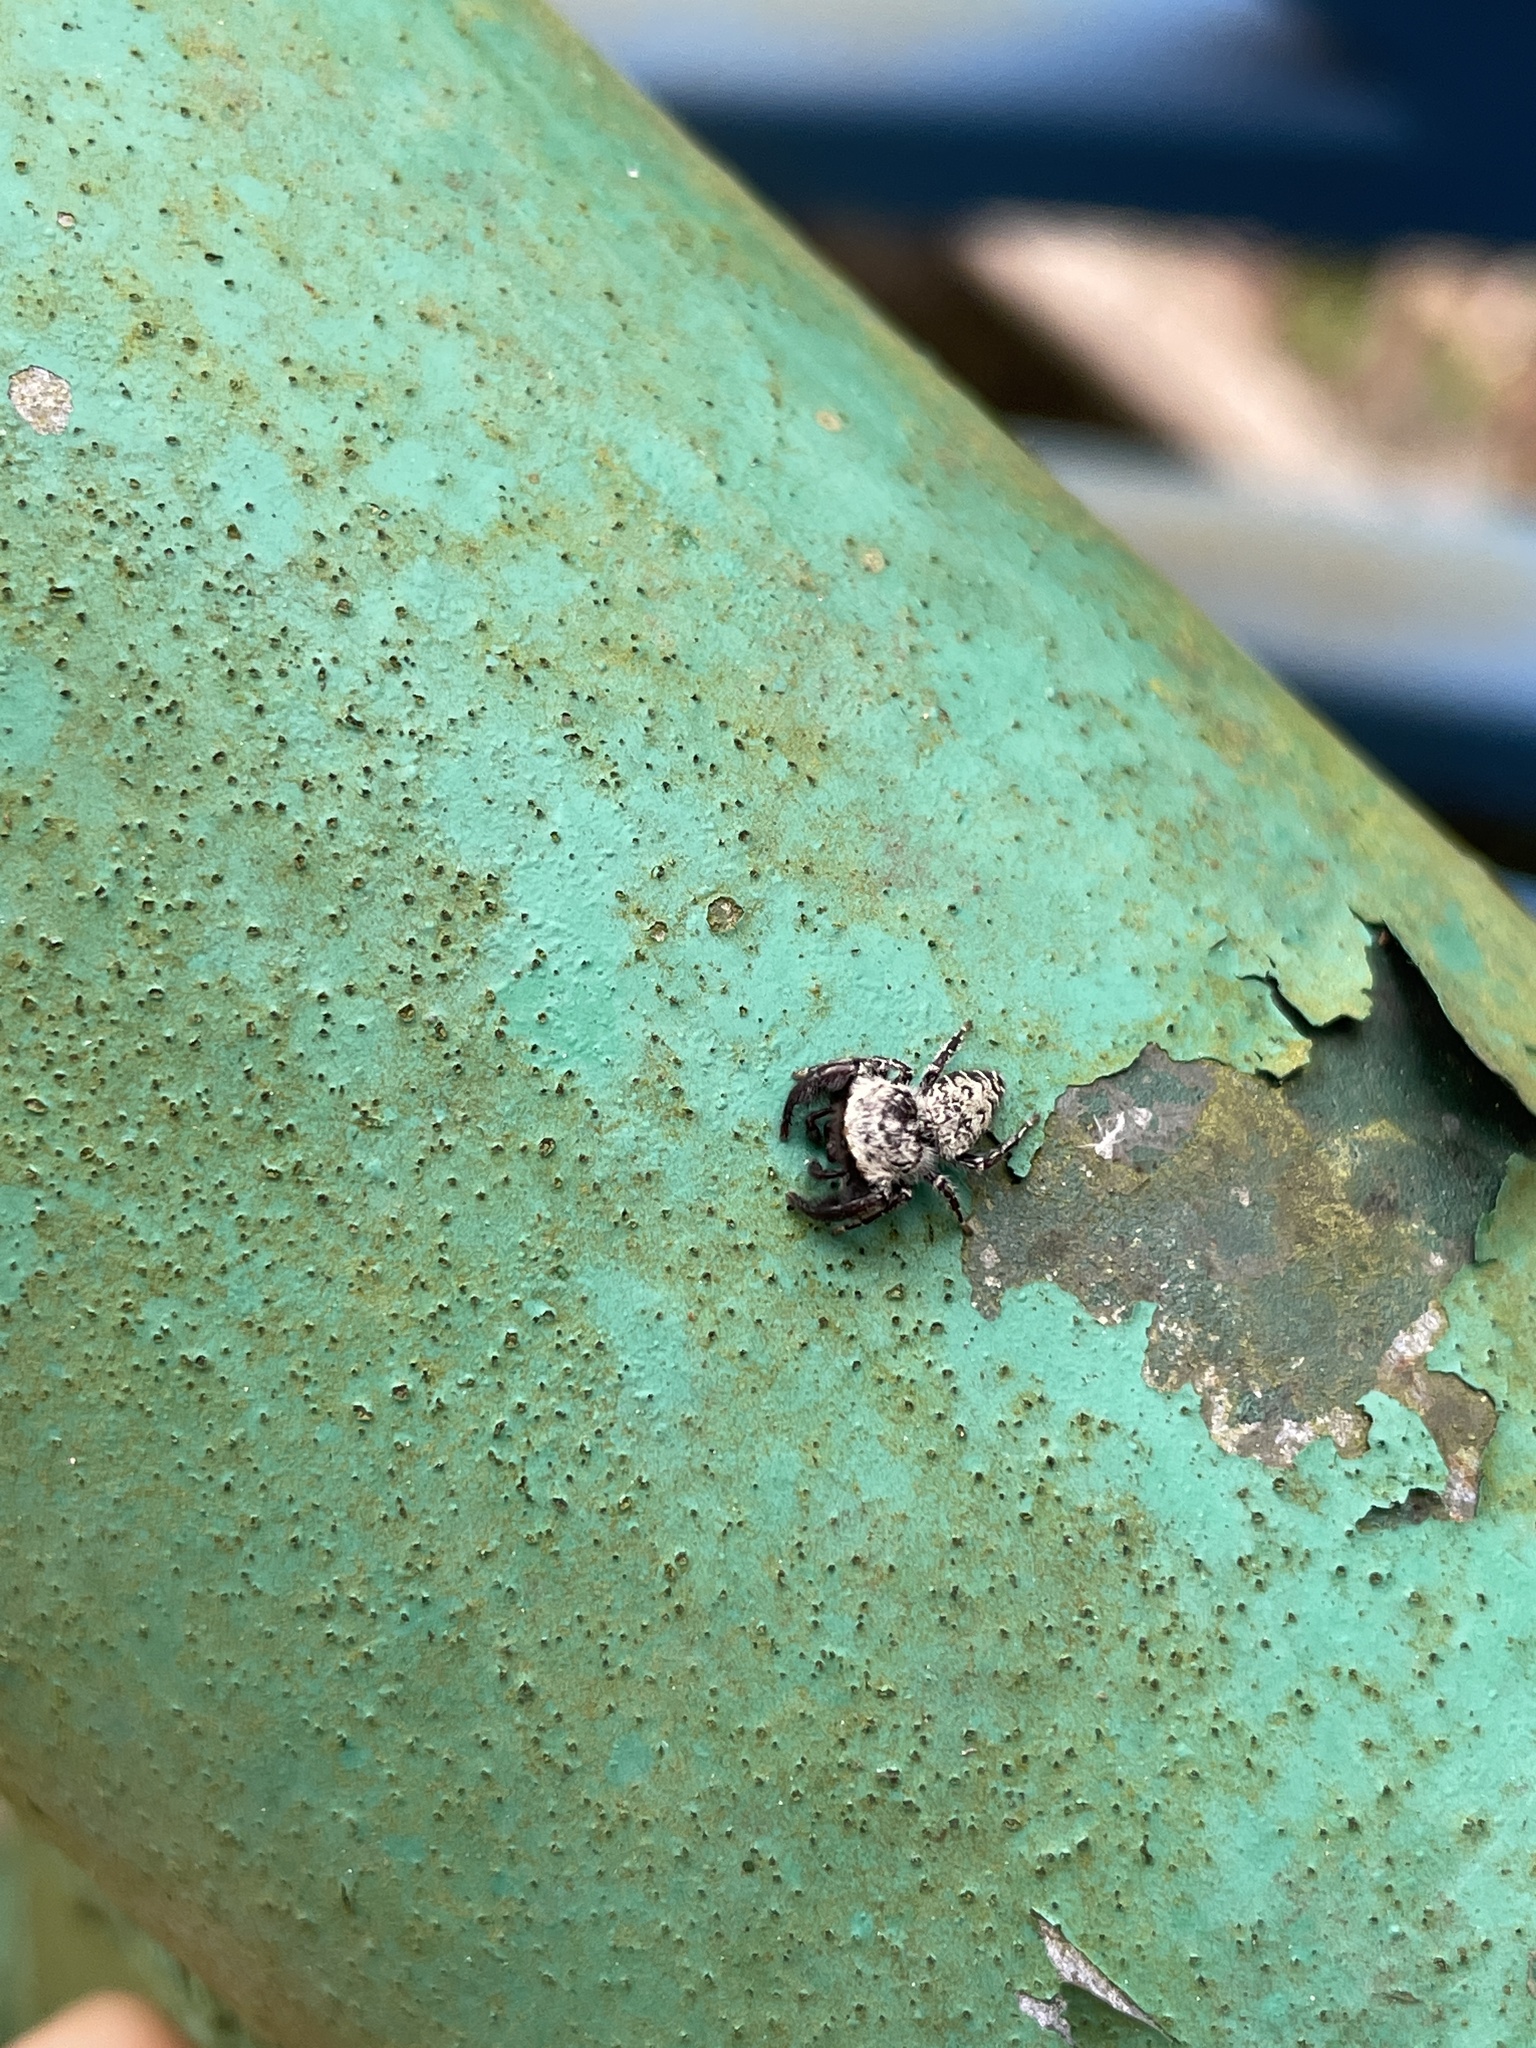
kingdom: Animalia
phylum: Arthropoda
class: Arachnida
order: Araneae
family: Salticidae
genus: Rhene
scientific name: Rhene rubrigera
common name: Jumping spider
